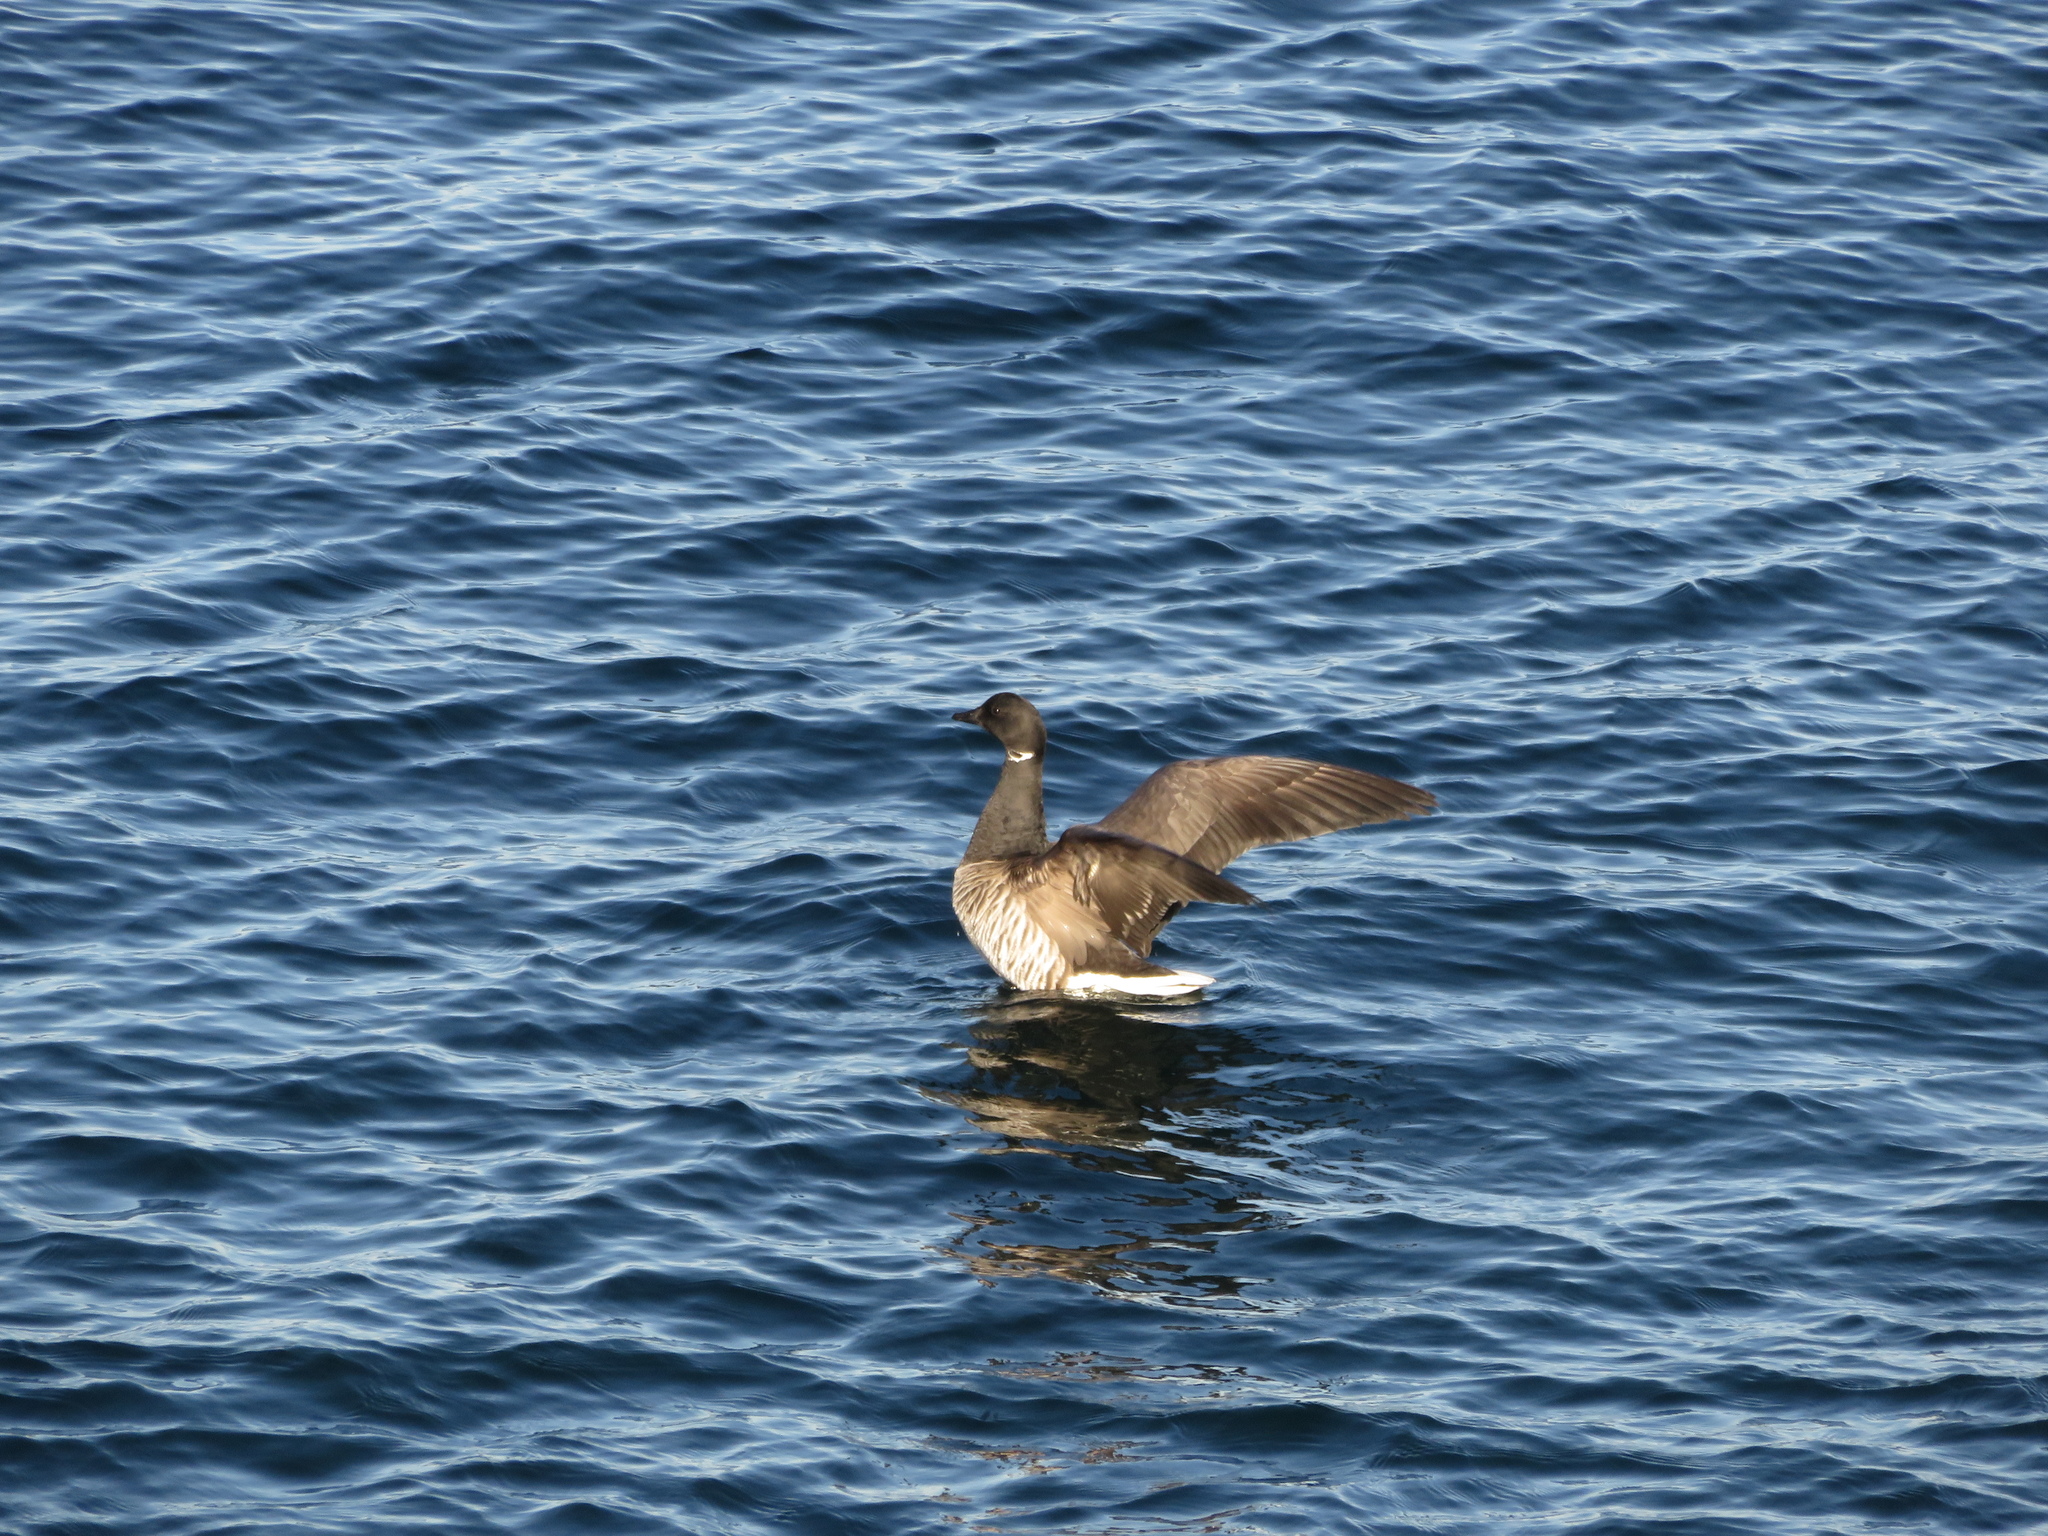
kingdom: Animalia
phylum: Chordata
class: Aves
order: Anseriformes
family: Anatidae
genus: Branta
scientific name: Branta bernicla
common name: Brant goose
